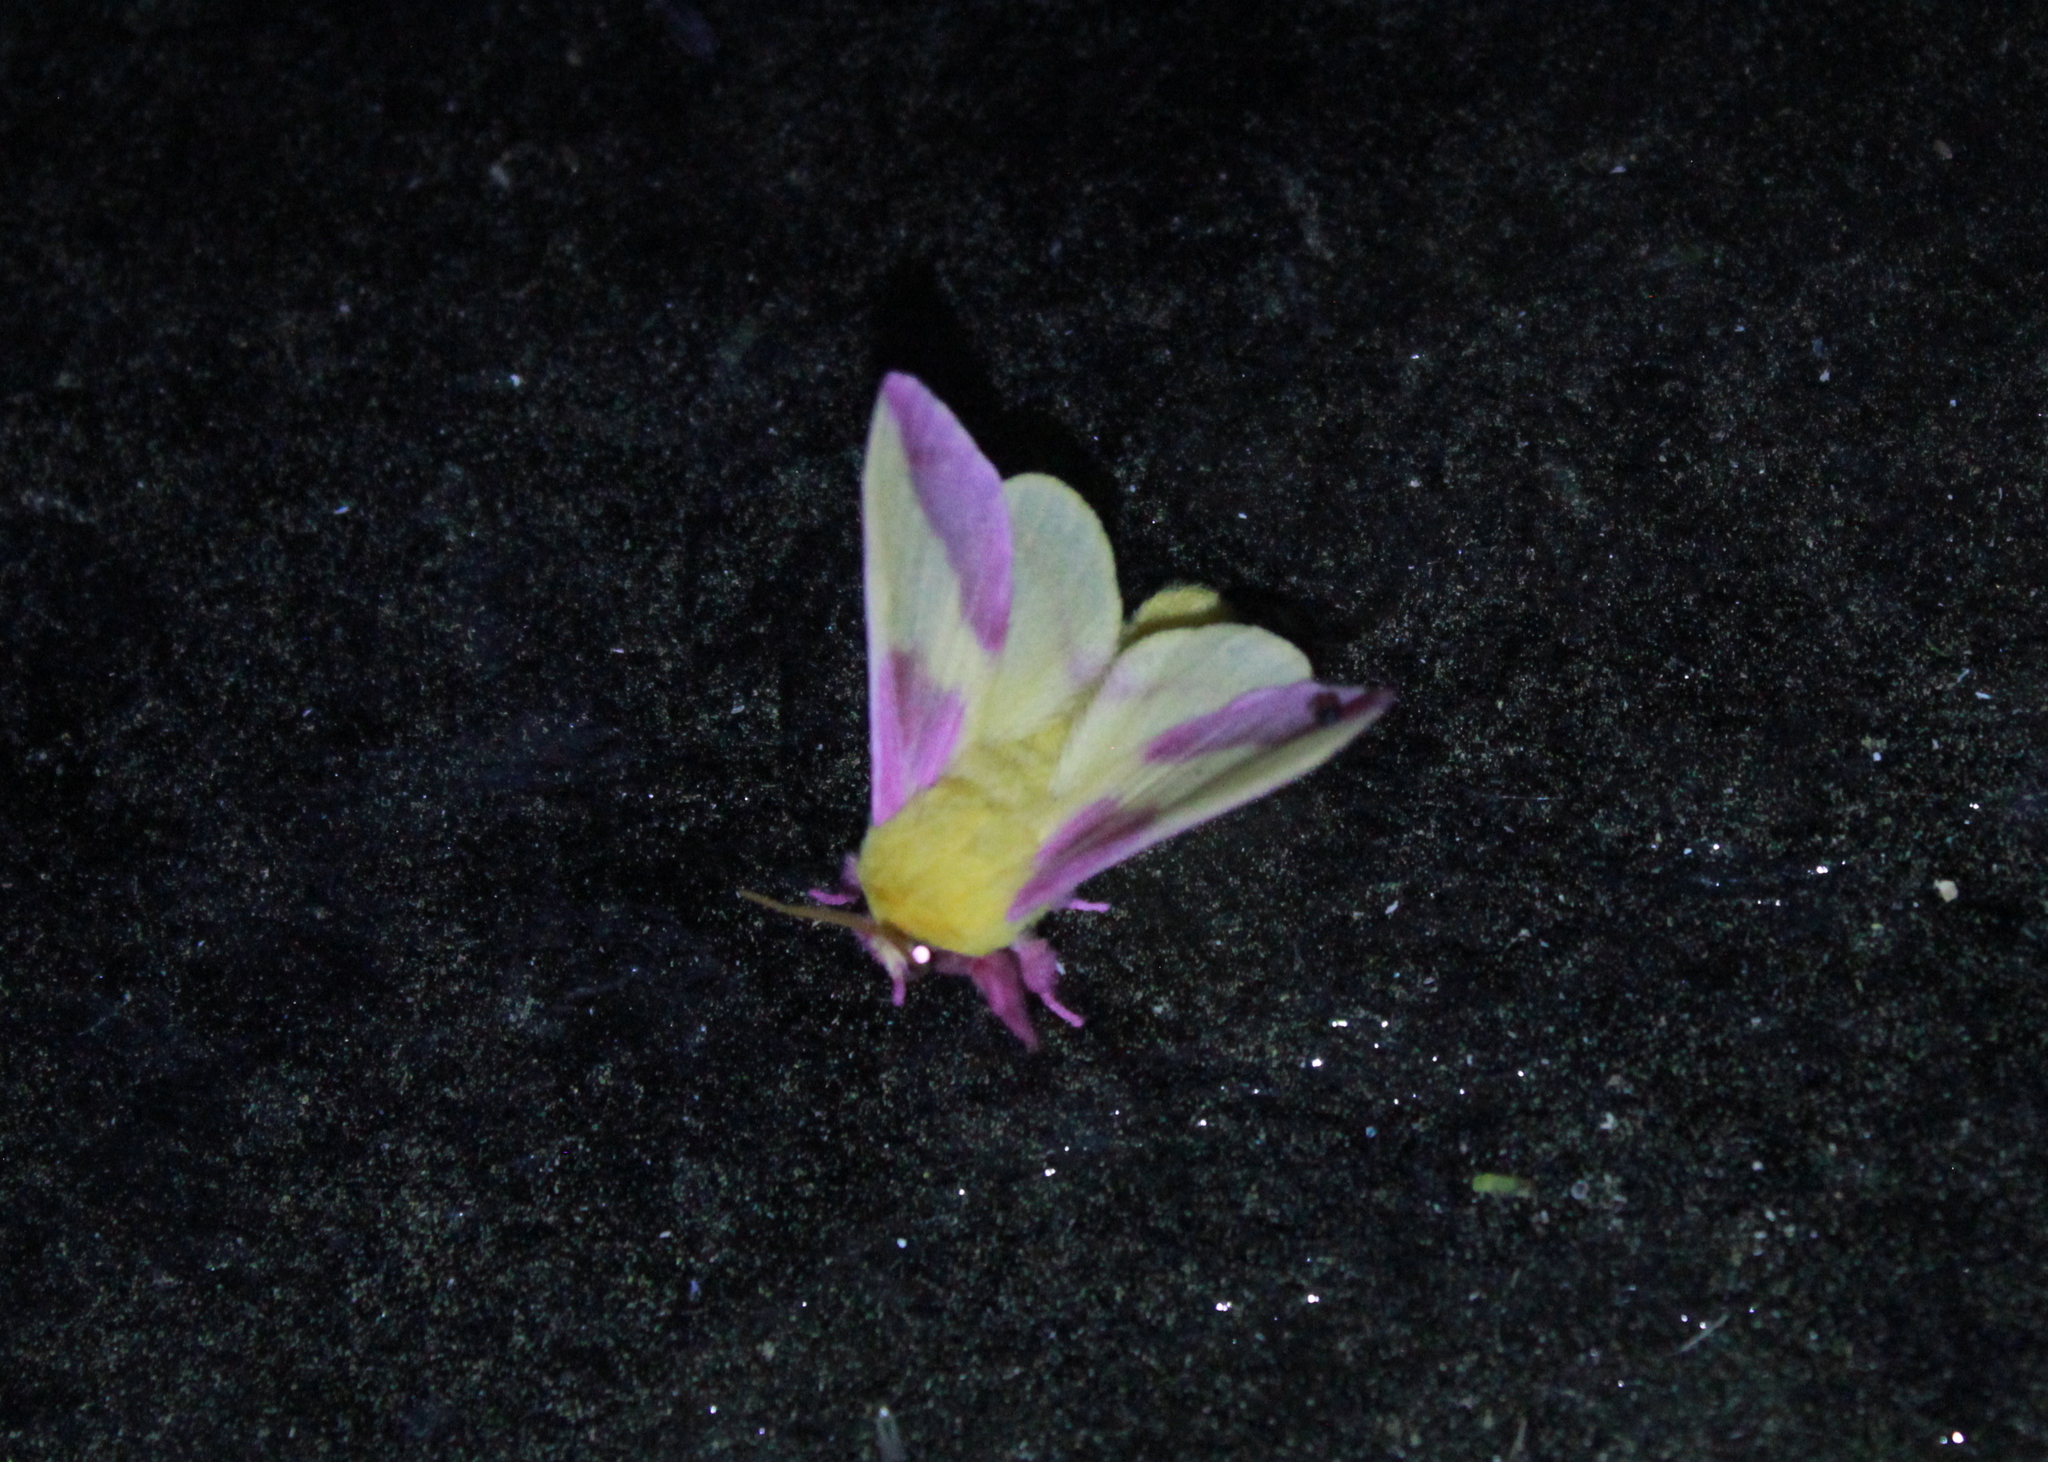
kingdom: Animalia
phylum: Arthropoda
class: Insecta
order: Lepidoptera
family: Saturniidae
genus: Dryocampa
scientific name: Dryocampa rubicunda
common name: Rosy maple moth
